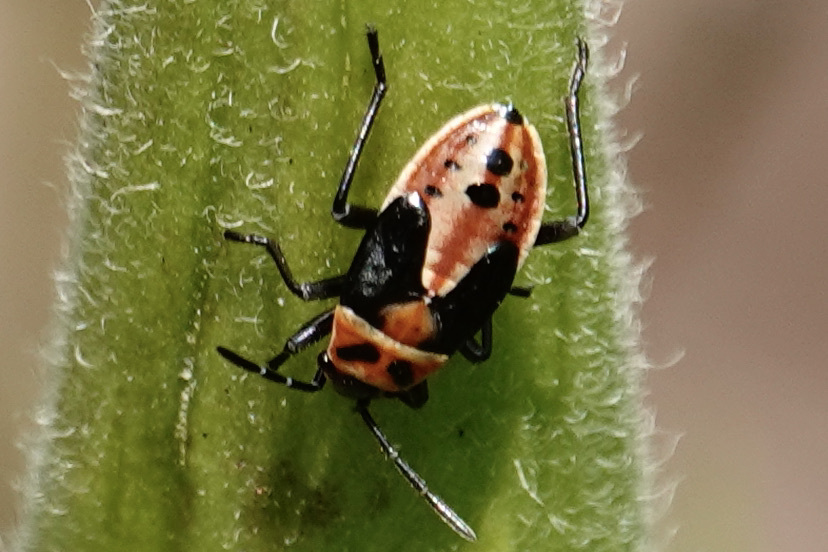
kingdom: Animalia
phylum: Arthropoda
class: Insecta
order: Hemiptera
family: Lygaeidae
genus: Lygaeus
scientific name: Lygaeus kalmii
